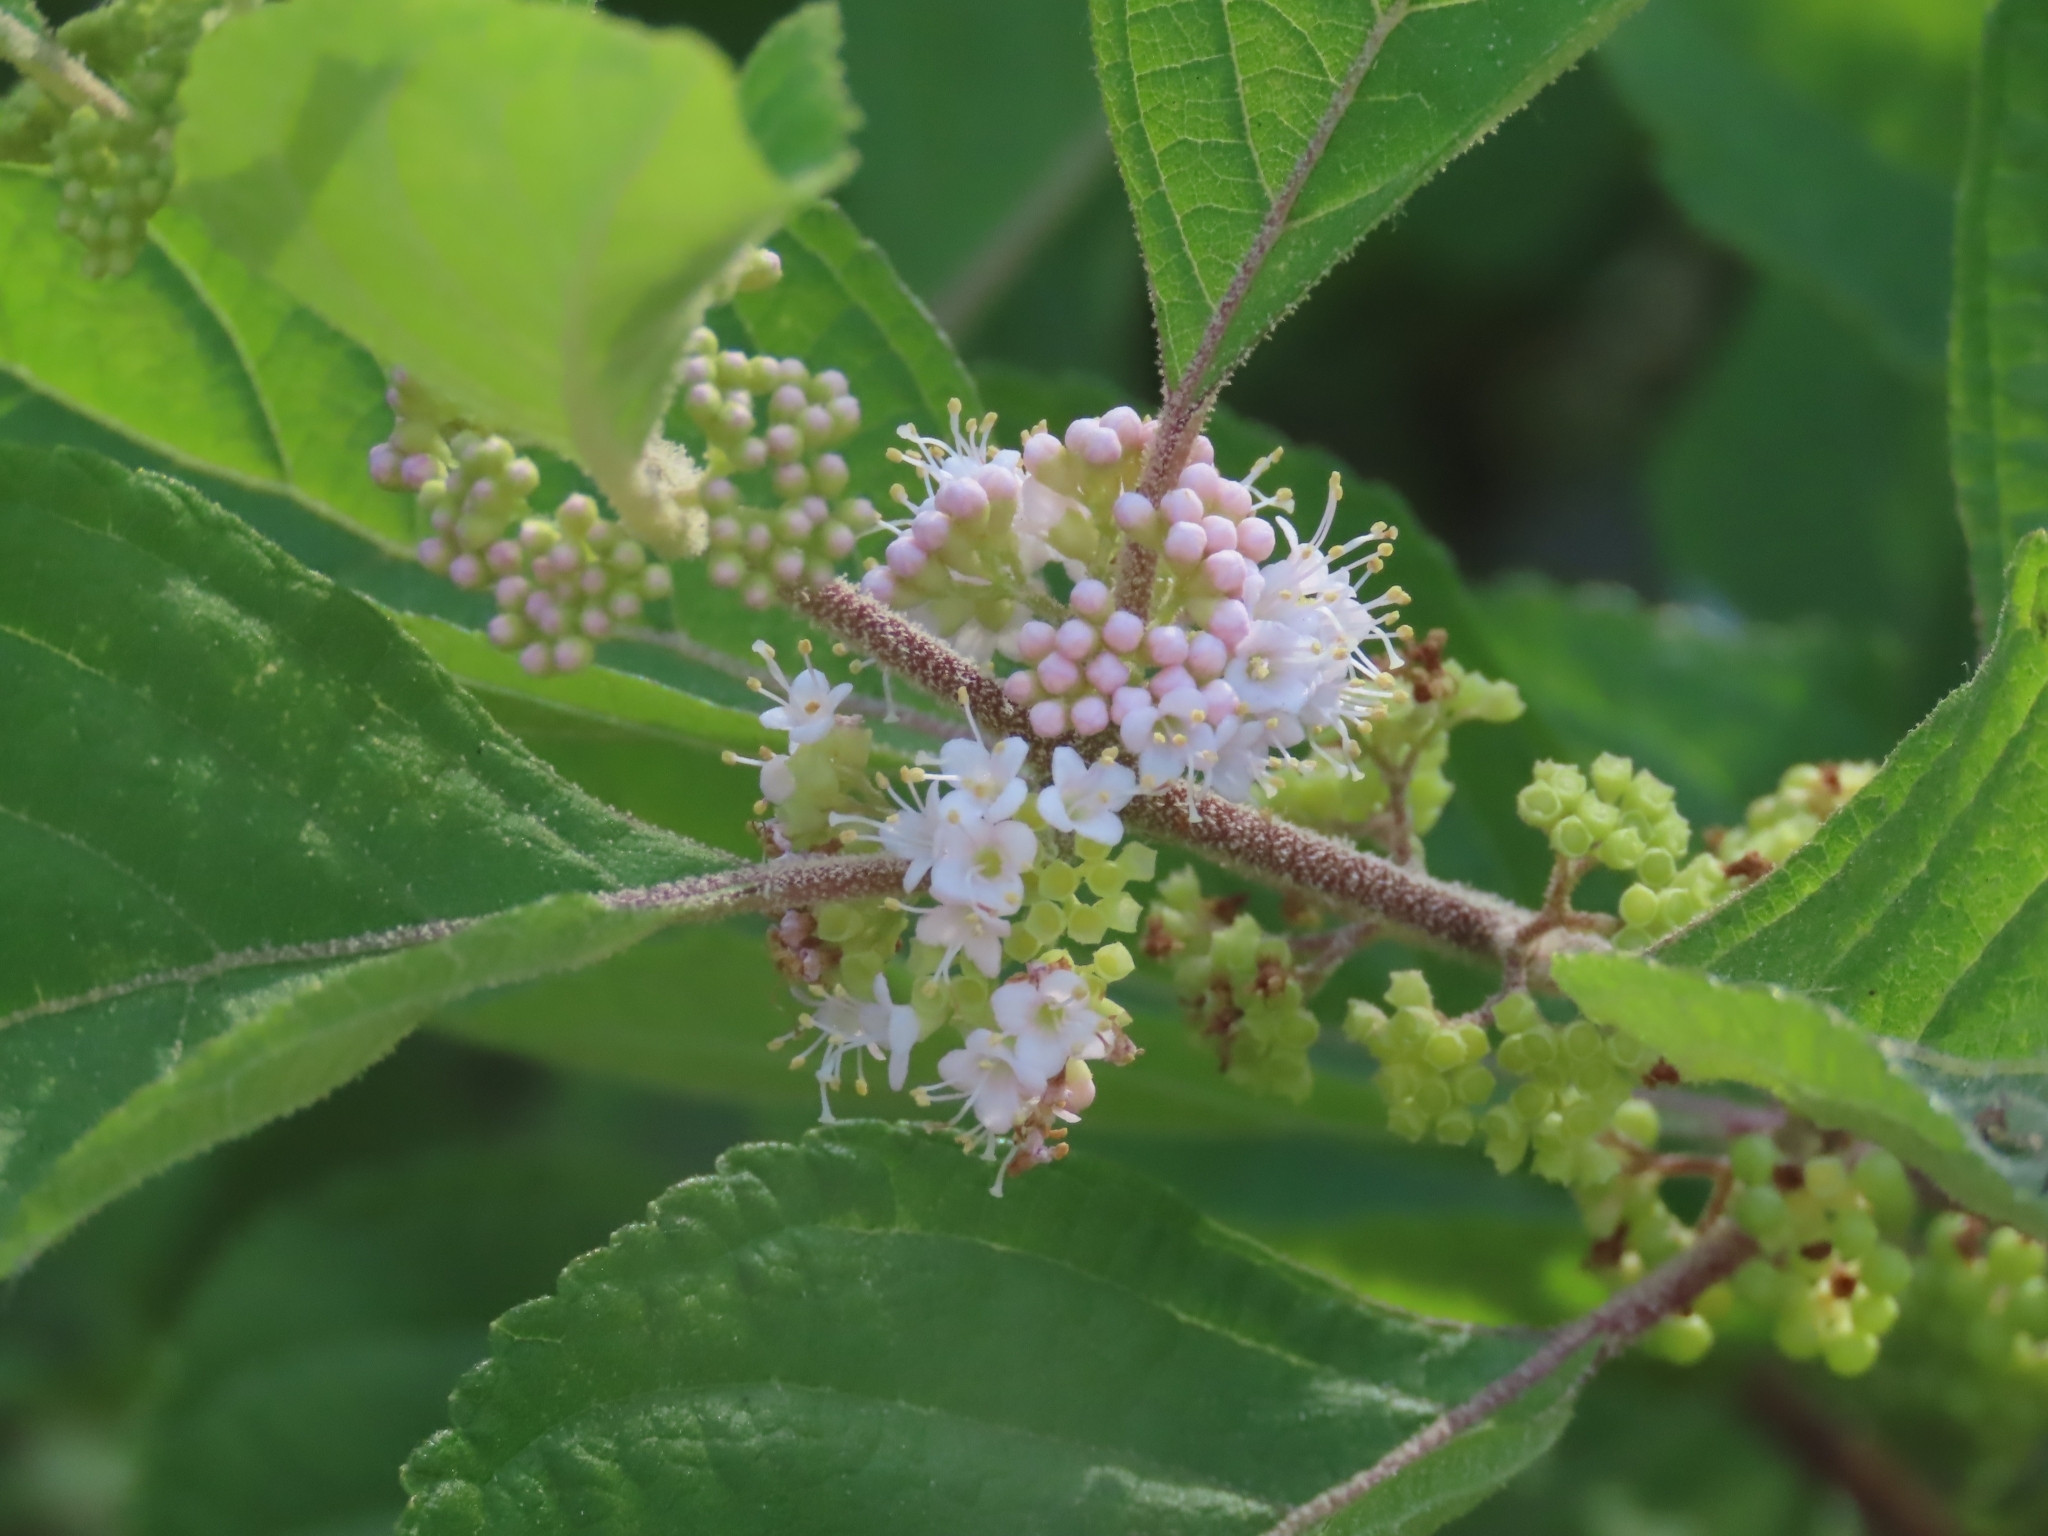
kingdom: Plantae
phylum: Tracheophyta
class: Magnoliopsida
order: Lamiales
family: Lamiaceae
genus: Callicarpa
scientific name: Callicarpa americana
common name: American beautyberry
